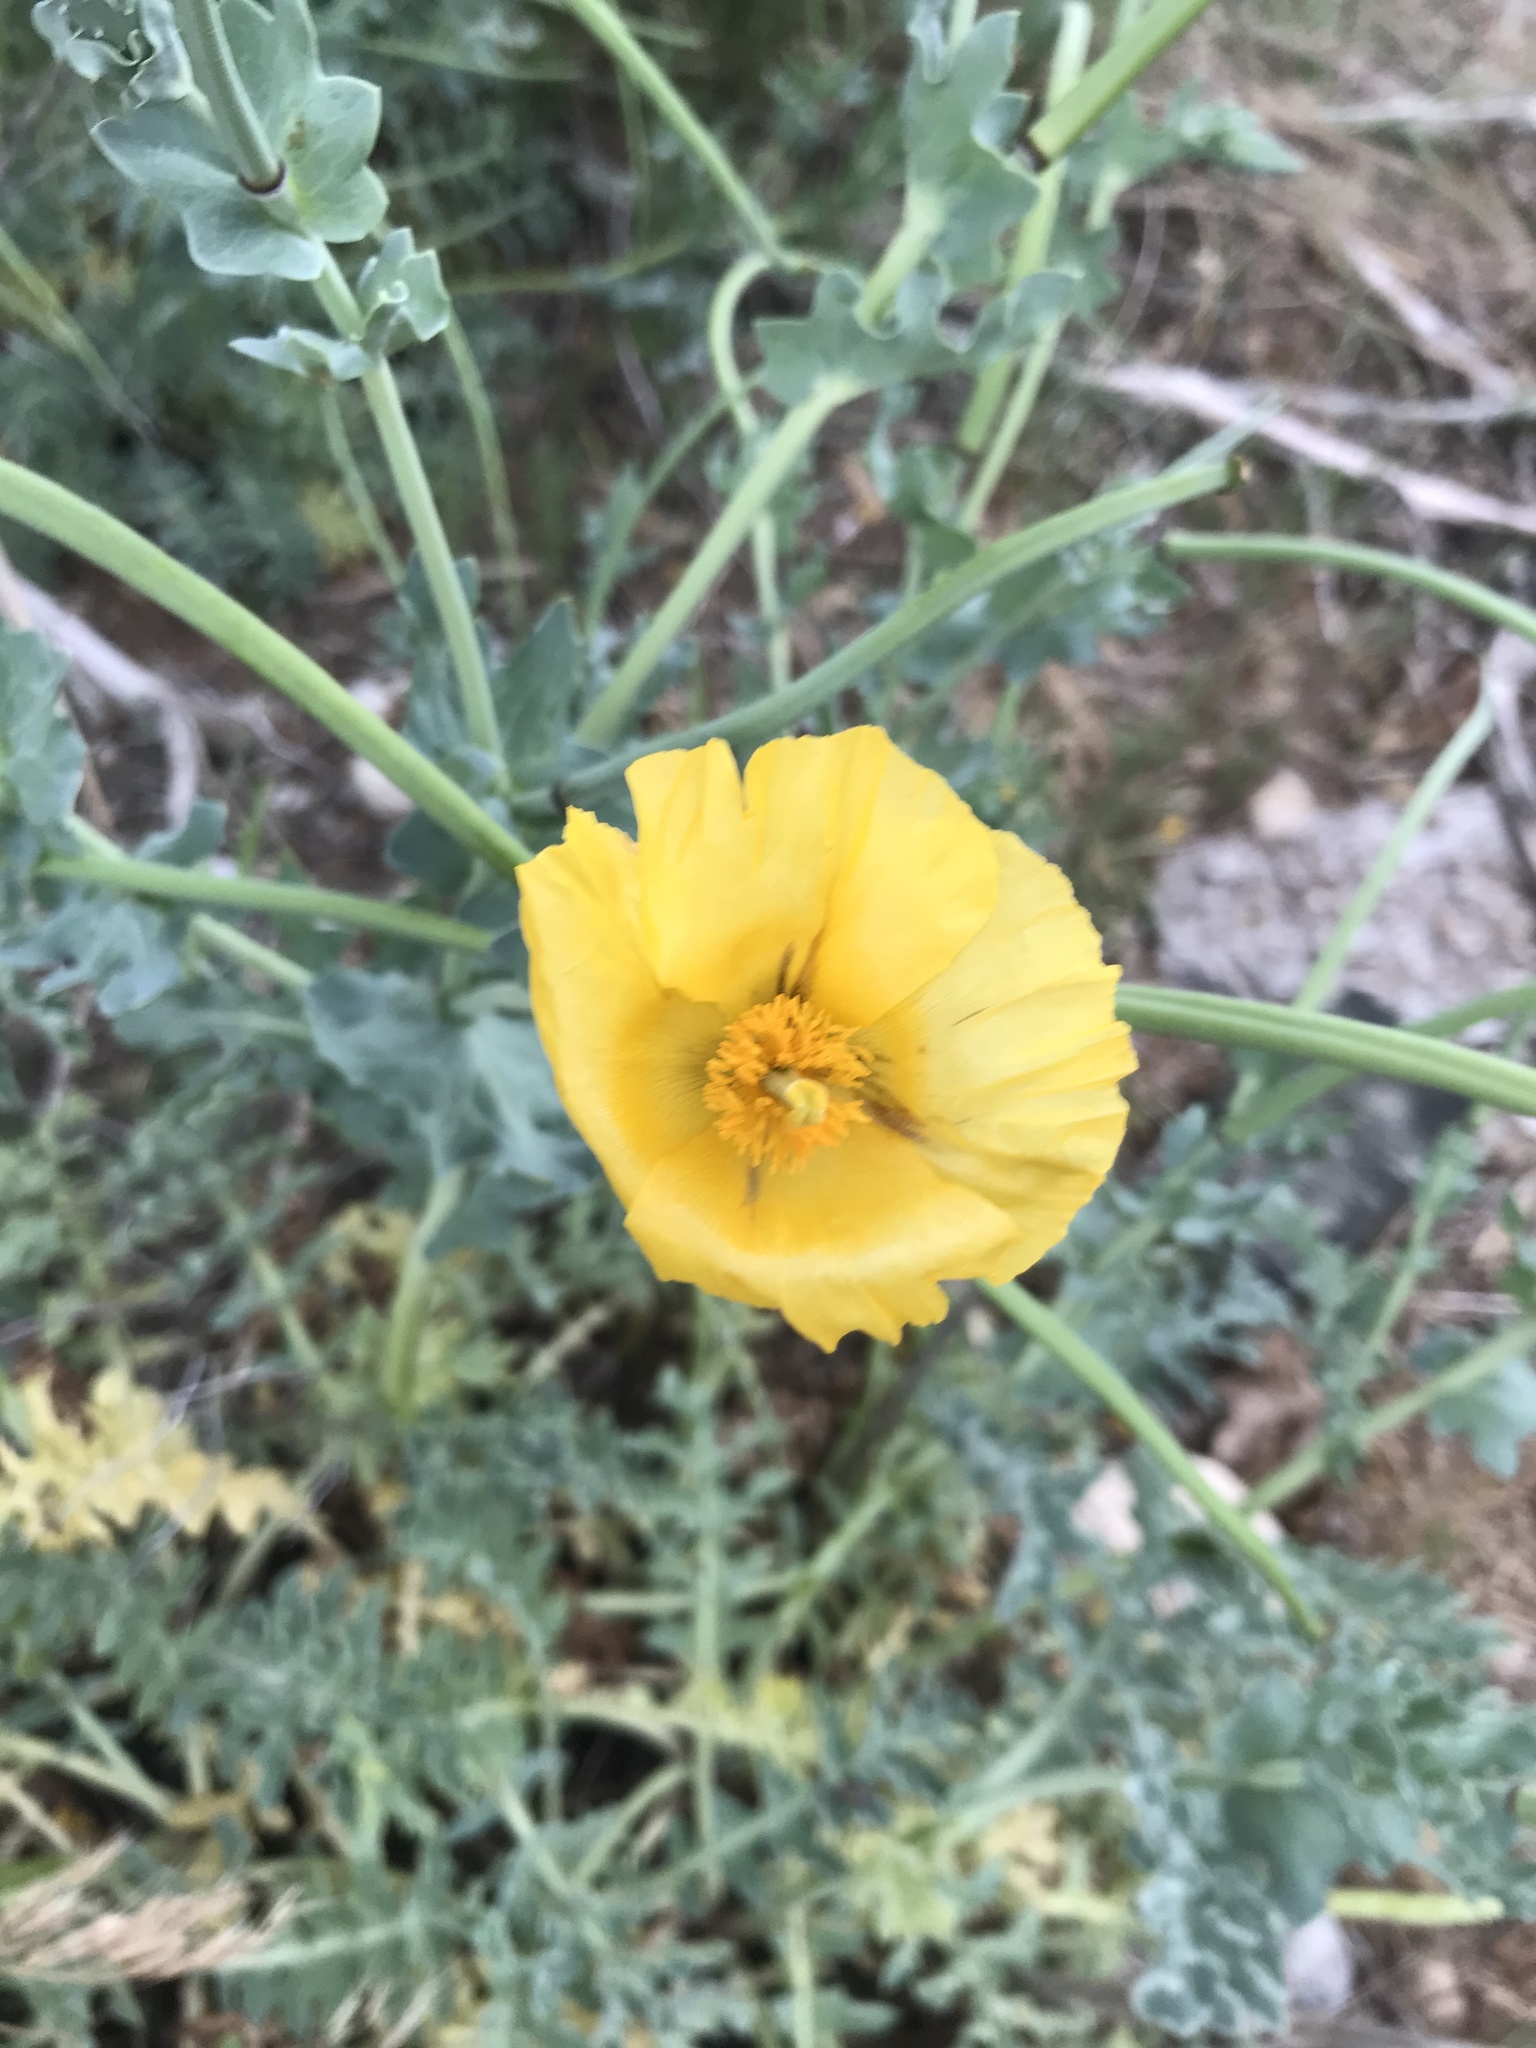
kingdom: Plantae
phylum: Tracheophyta
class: Magnoliopsida
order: Ranunculales
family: Papaveraceae
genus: Glaucium
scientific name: Glaucium flavum
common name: Yellow horned-poppy
